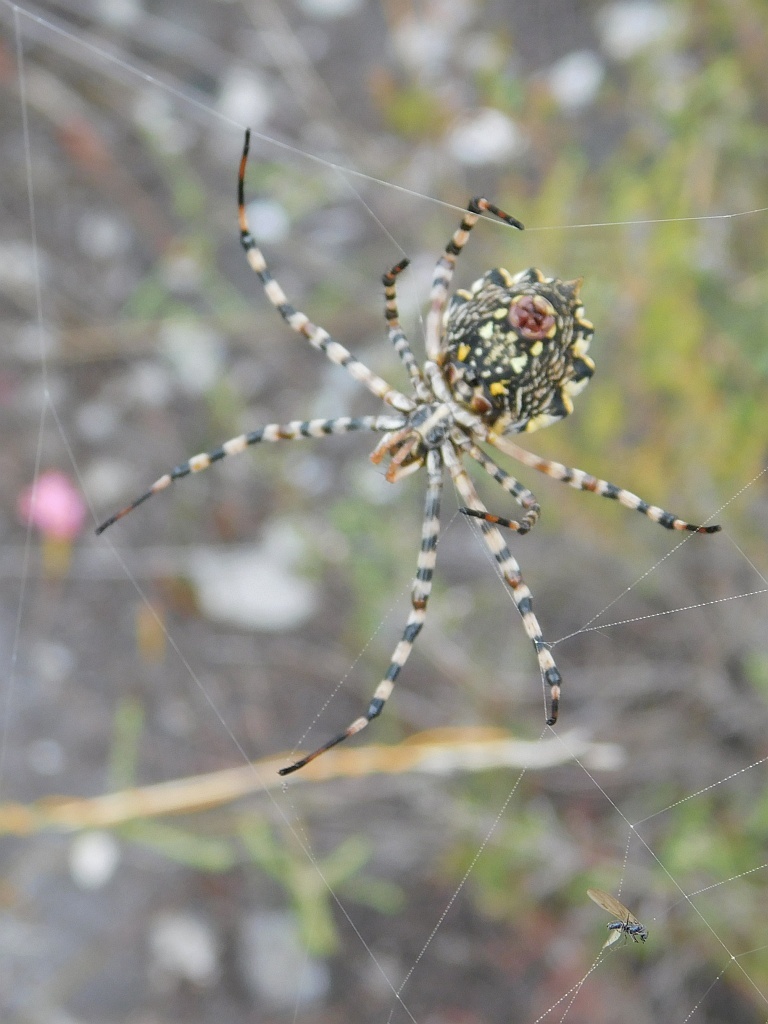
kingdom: Animalia
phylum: Arthropoda
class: Arachnida
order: Araneae
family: Araneidae
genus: Argiope
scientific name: Argiope australis
